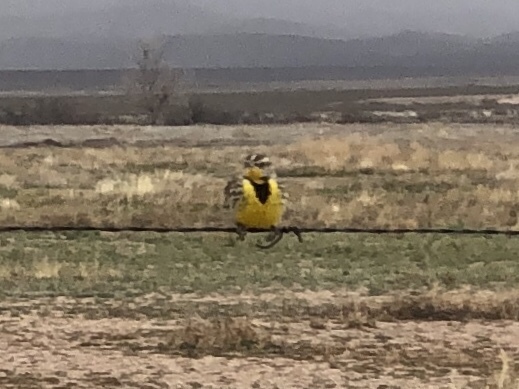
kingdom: Animalia
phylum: Chordata
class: Aves
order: Passeriformes
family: Icteridae
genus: Sturnella
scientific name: Sturnella neglecta
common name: Western meadowlark
